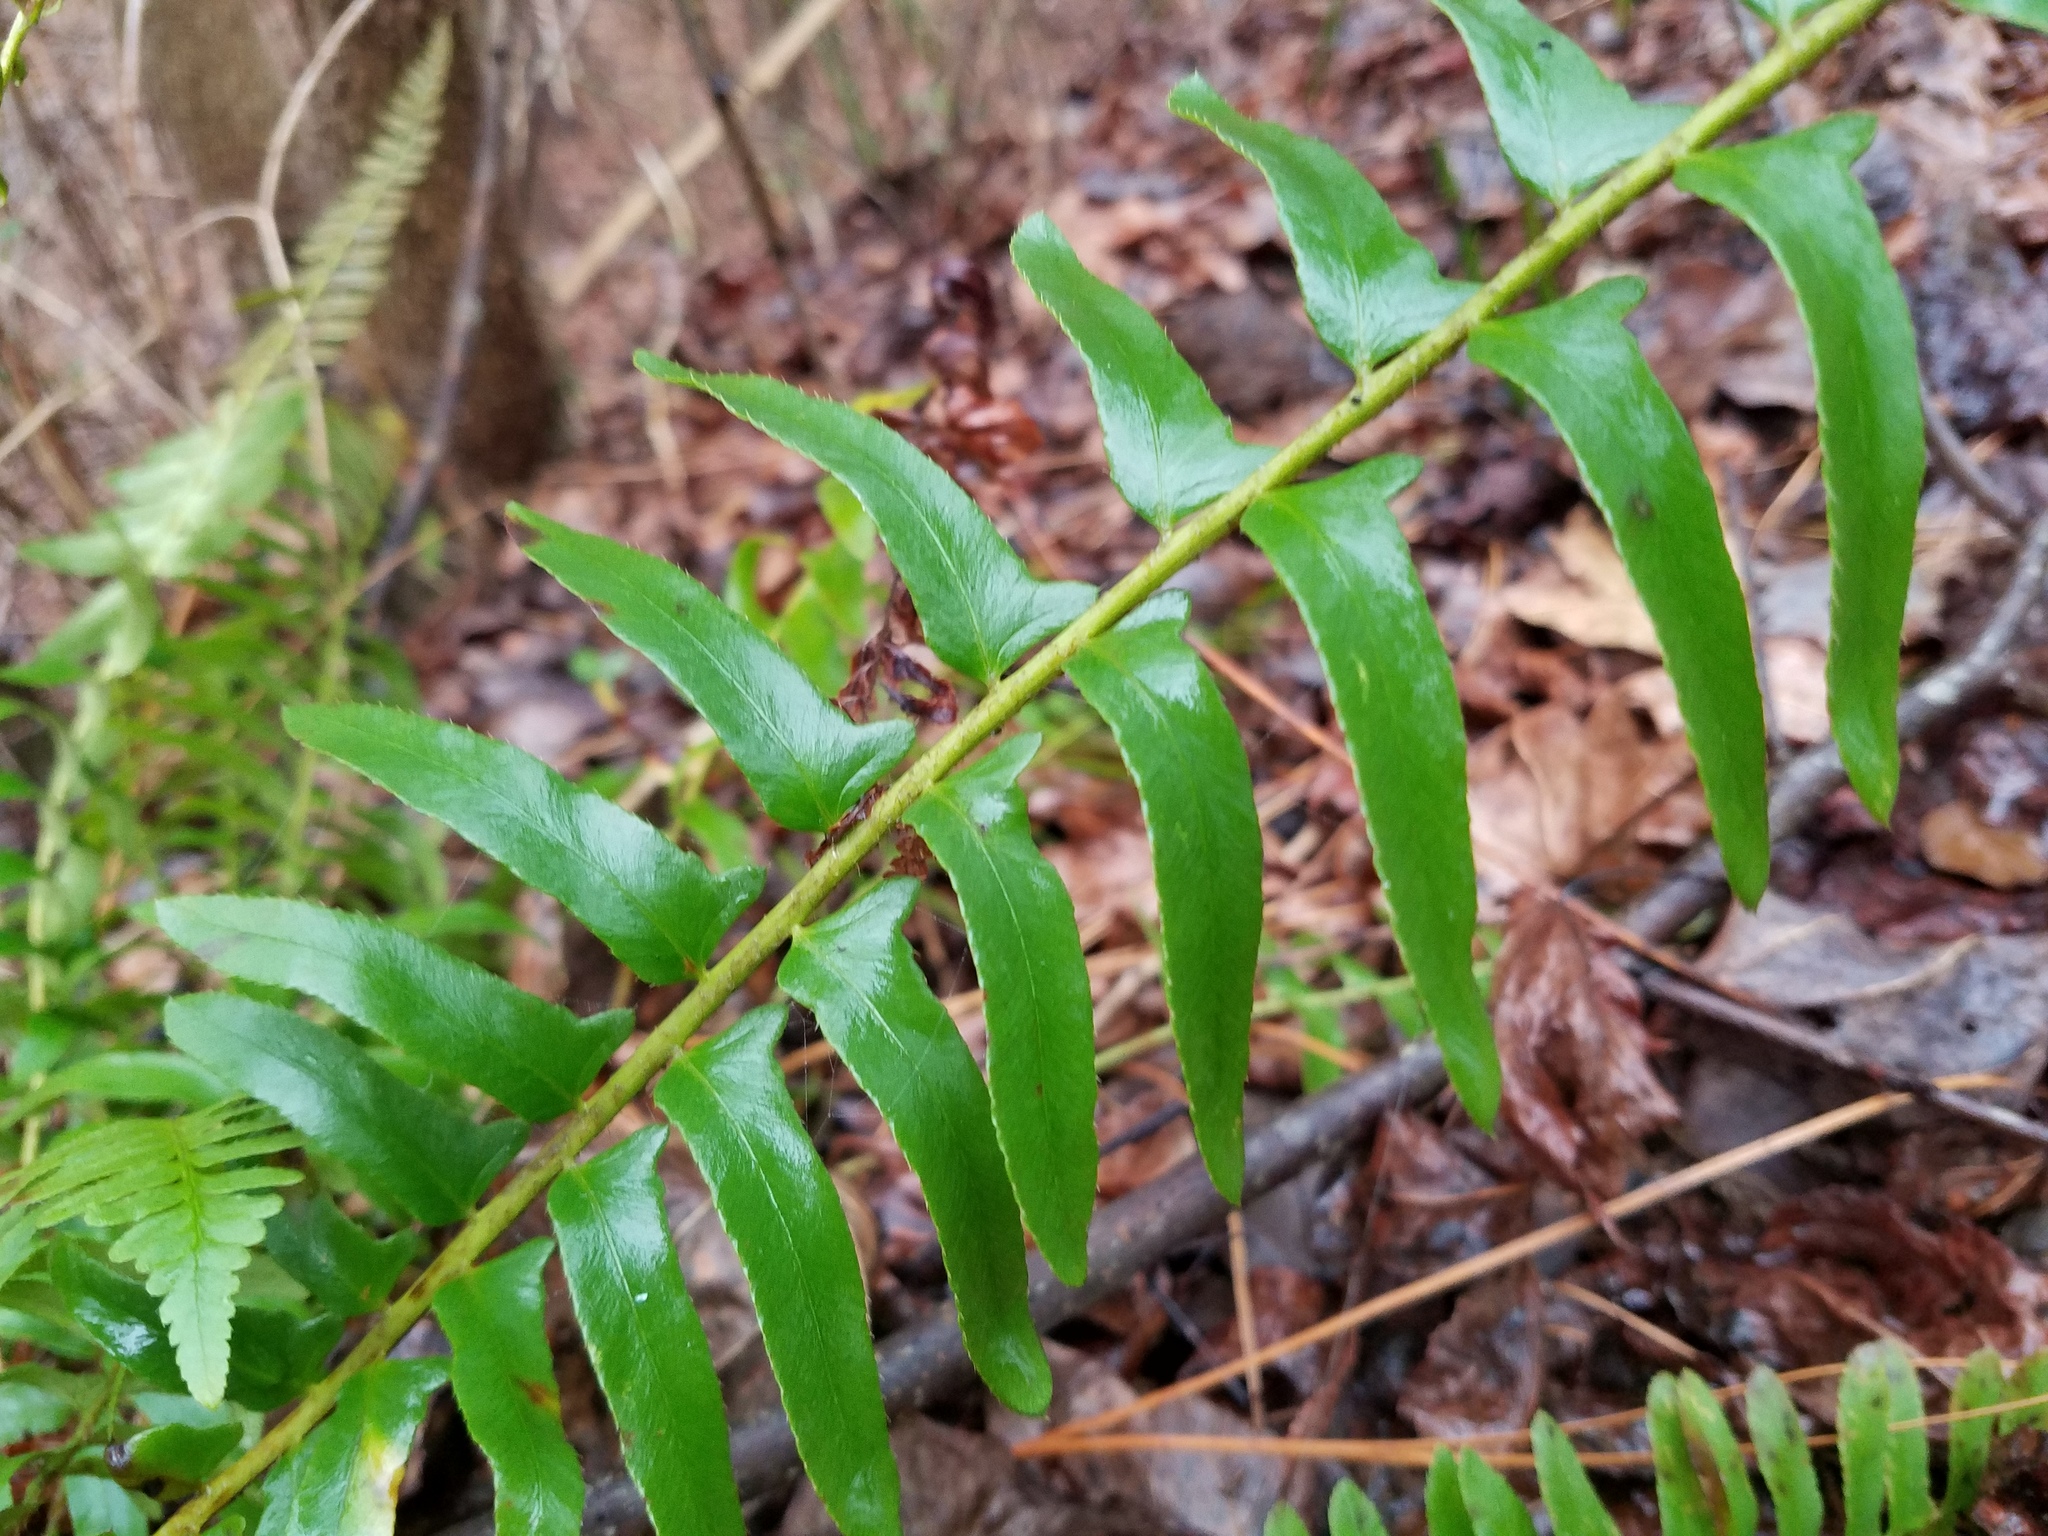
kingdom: Plantae
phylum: Tracheophyta
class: Polypodiopsida
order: Polypodiales
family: Dryopteridaceae
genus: Polystichum
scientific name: Polystichum acrostichoides
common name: Christmas fern
